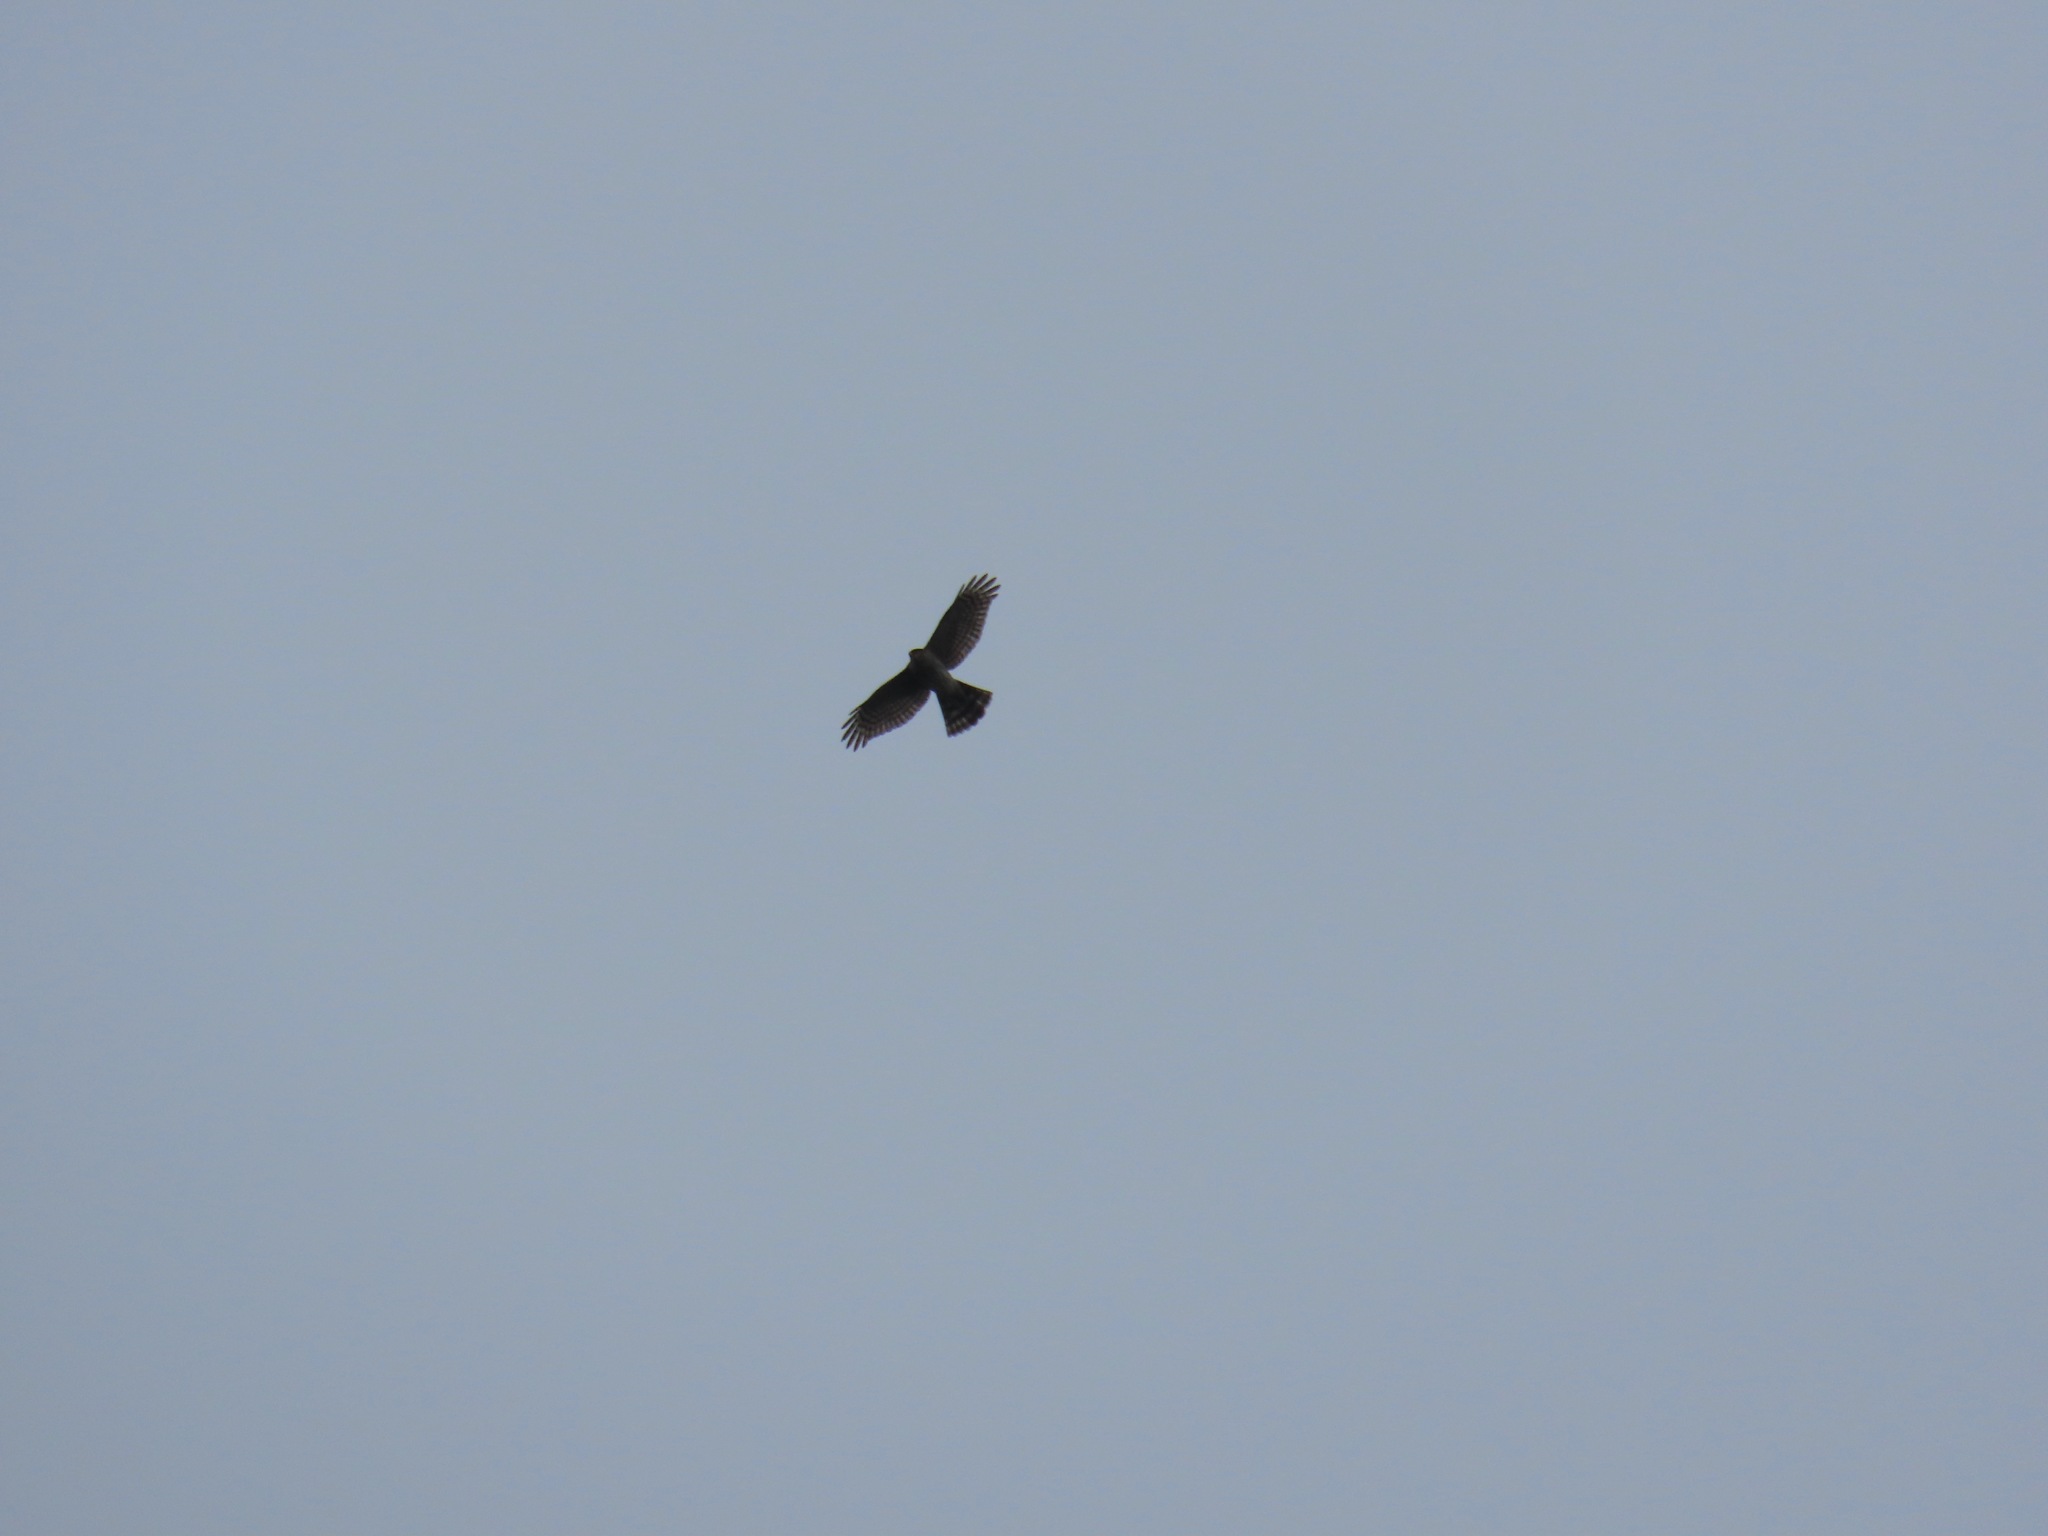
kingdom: Animalia
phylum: Chordata
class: Aves
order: Accipitriformes
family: Accipitridae
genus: Accipiter
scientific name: Accipiter striatus
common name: Sharp-shinned hawk
